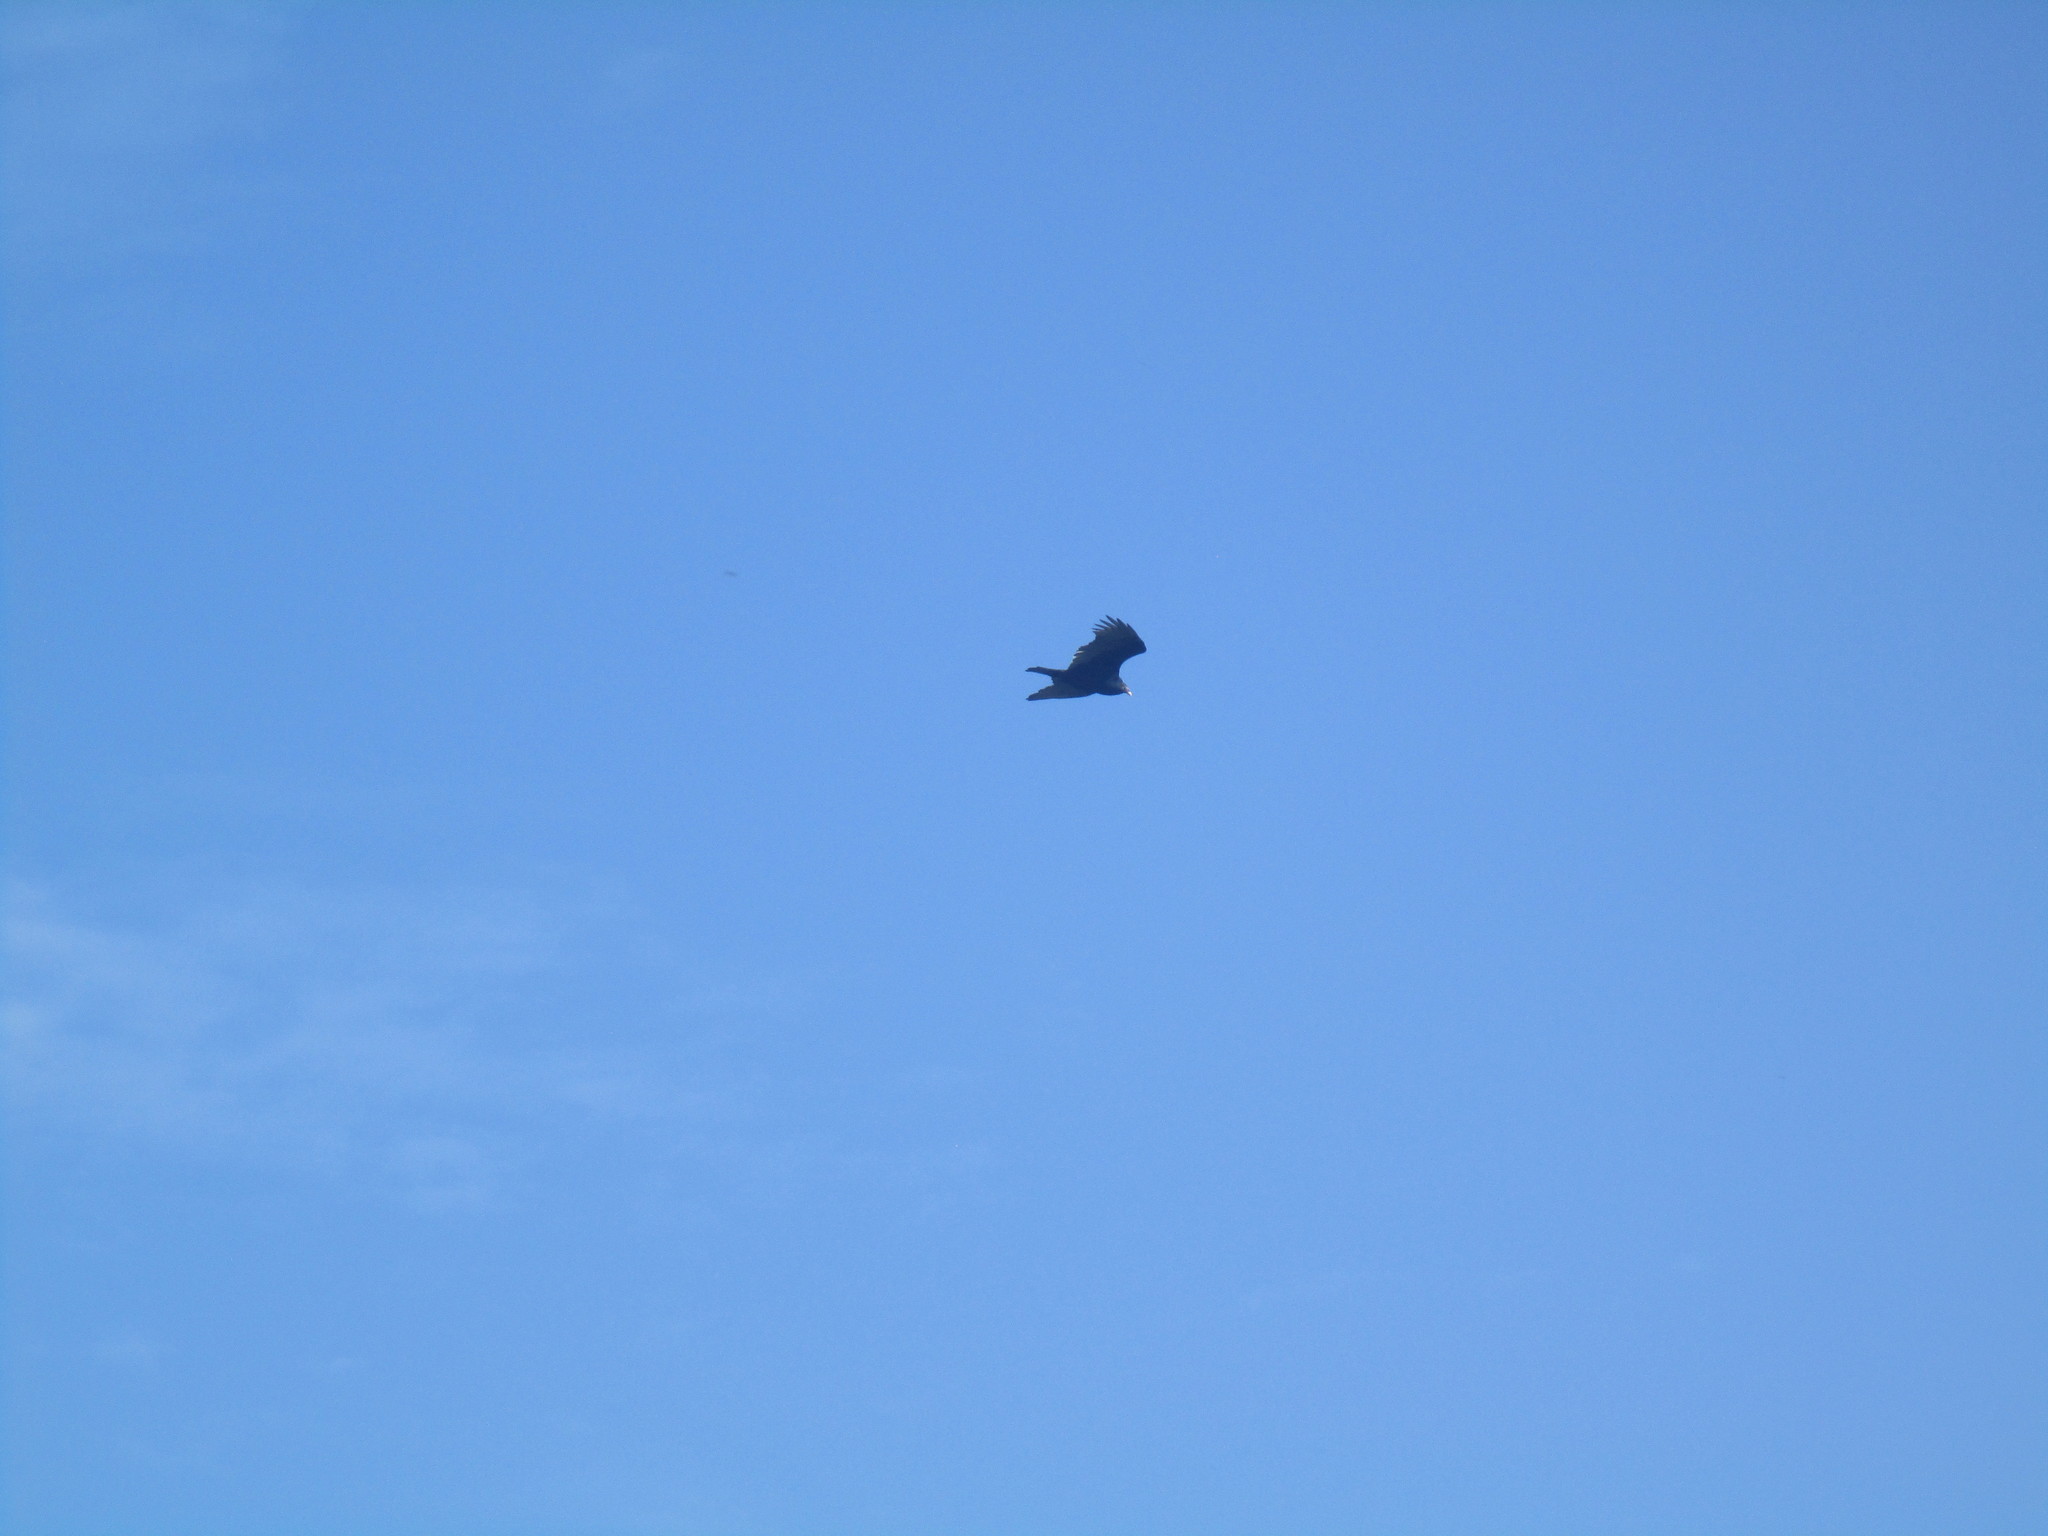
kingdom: Animalia
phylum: Chordata
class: Aves
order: Accipitriformes
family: Cathartidae
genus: Cathartes
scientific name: Cathartes aura
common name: Turkey vulture
